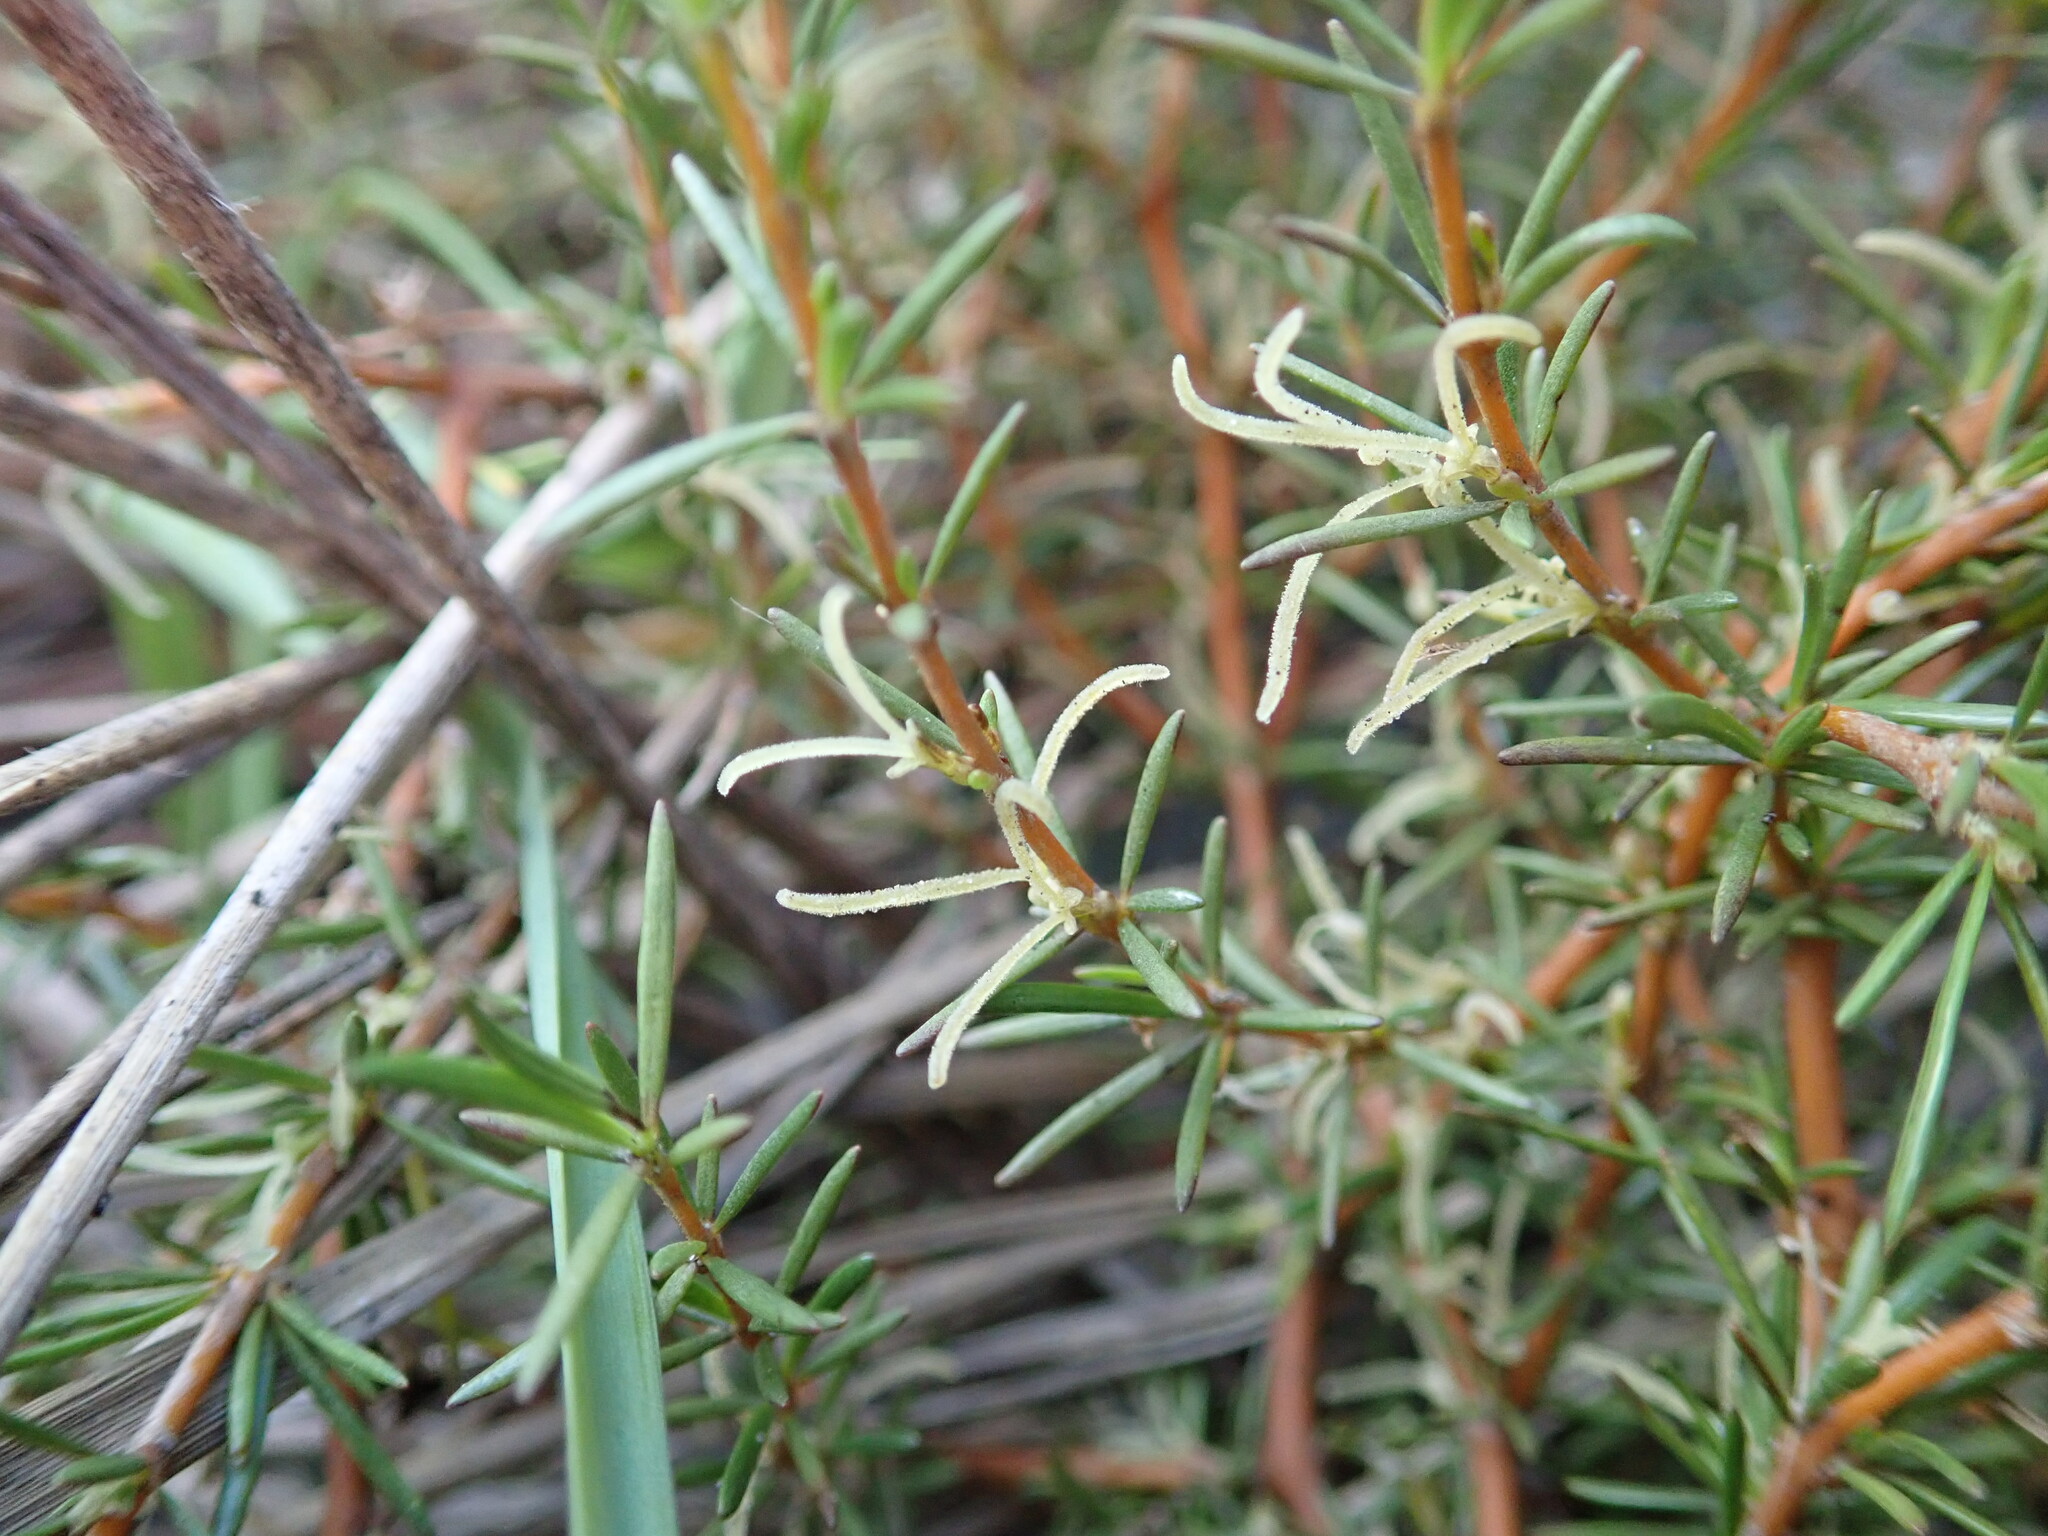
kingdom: Plantae
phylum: Tracheophyta
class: Magnoliopsida
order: Gentianales
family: Rubiaceae
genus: Coprosma
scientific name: Coprosma acerosa
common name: Sand coprosma
